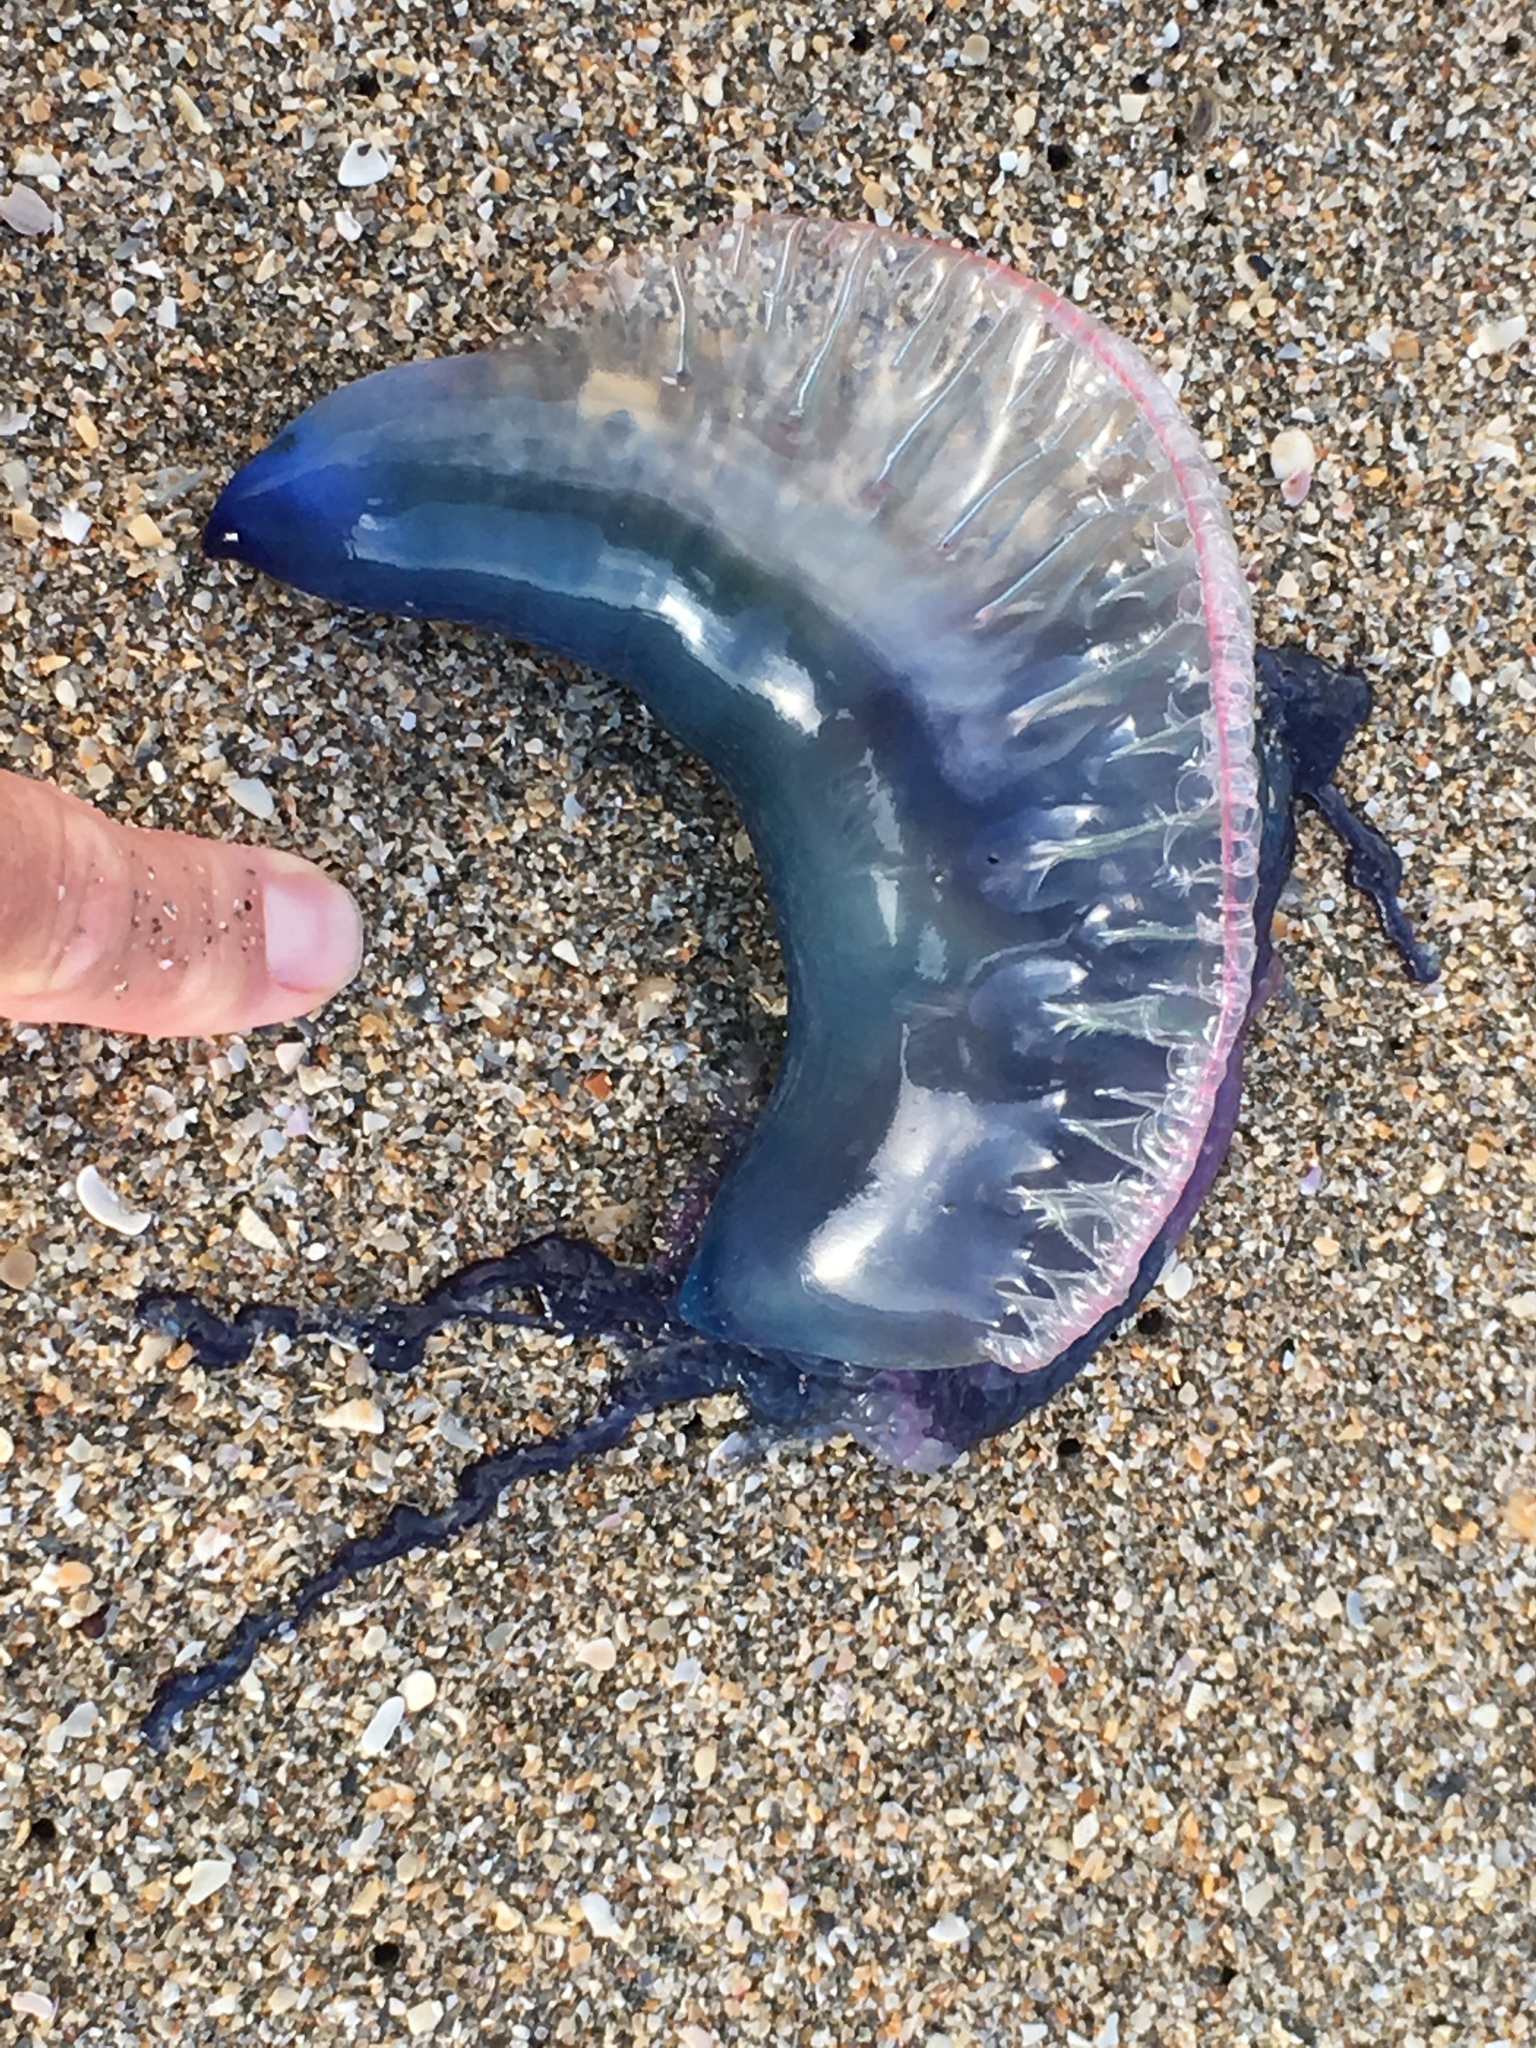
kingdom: Animalia
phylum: Cnidaria
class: Hydrozoa
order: Siphonophorae
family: Physaliidae
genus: Physalia
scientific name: Physalia physalis
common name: Portuguese man-of-war
